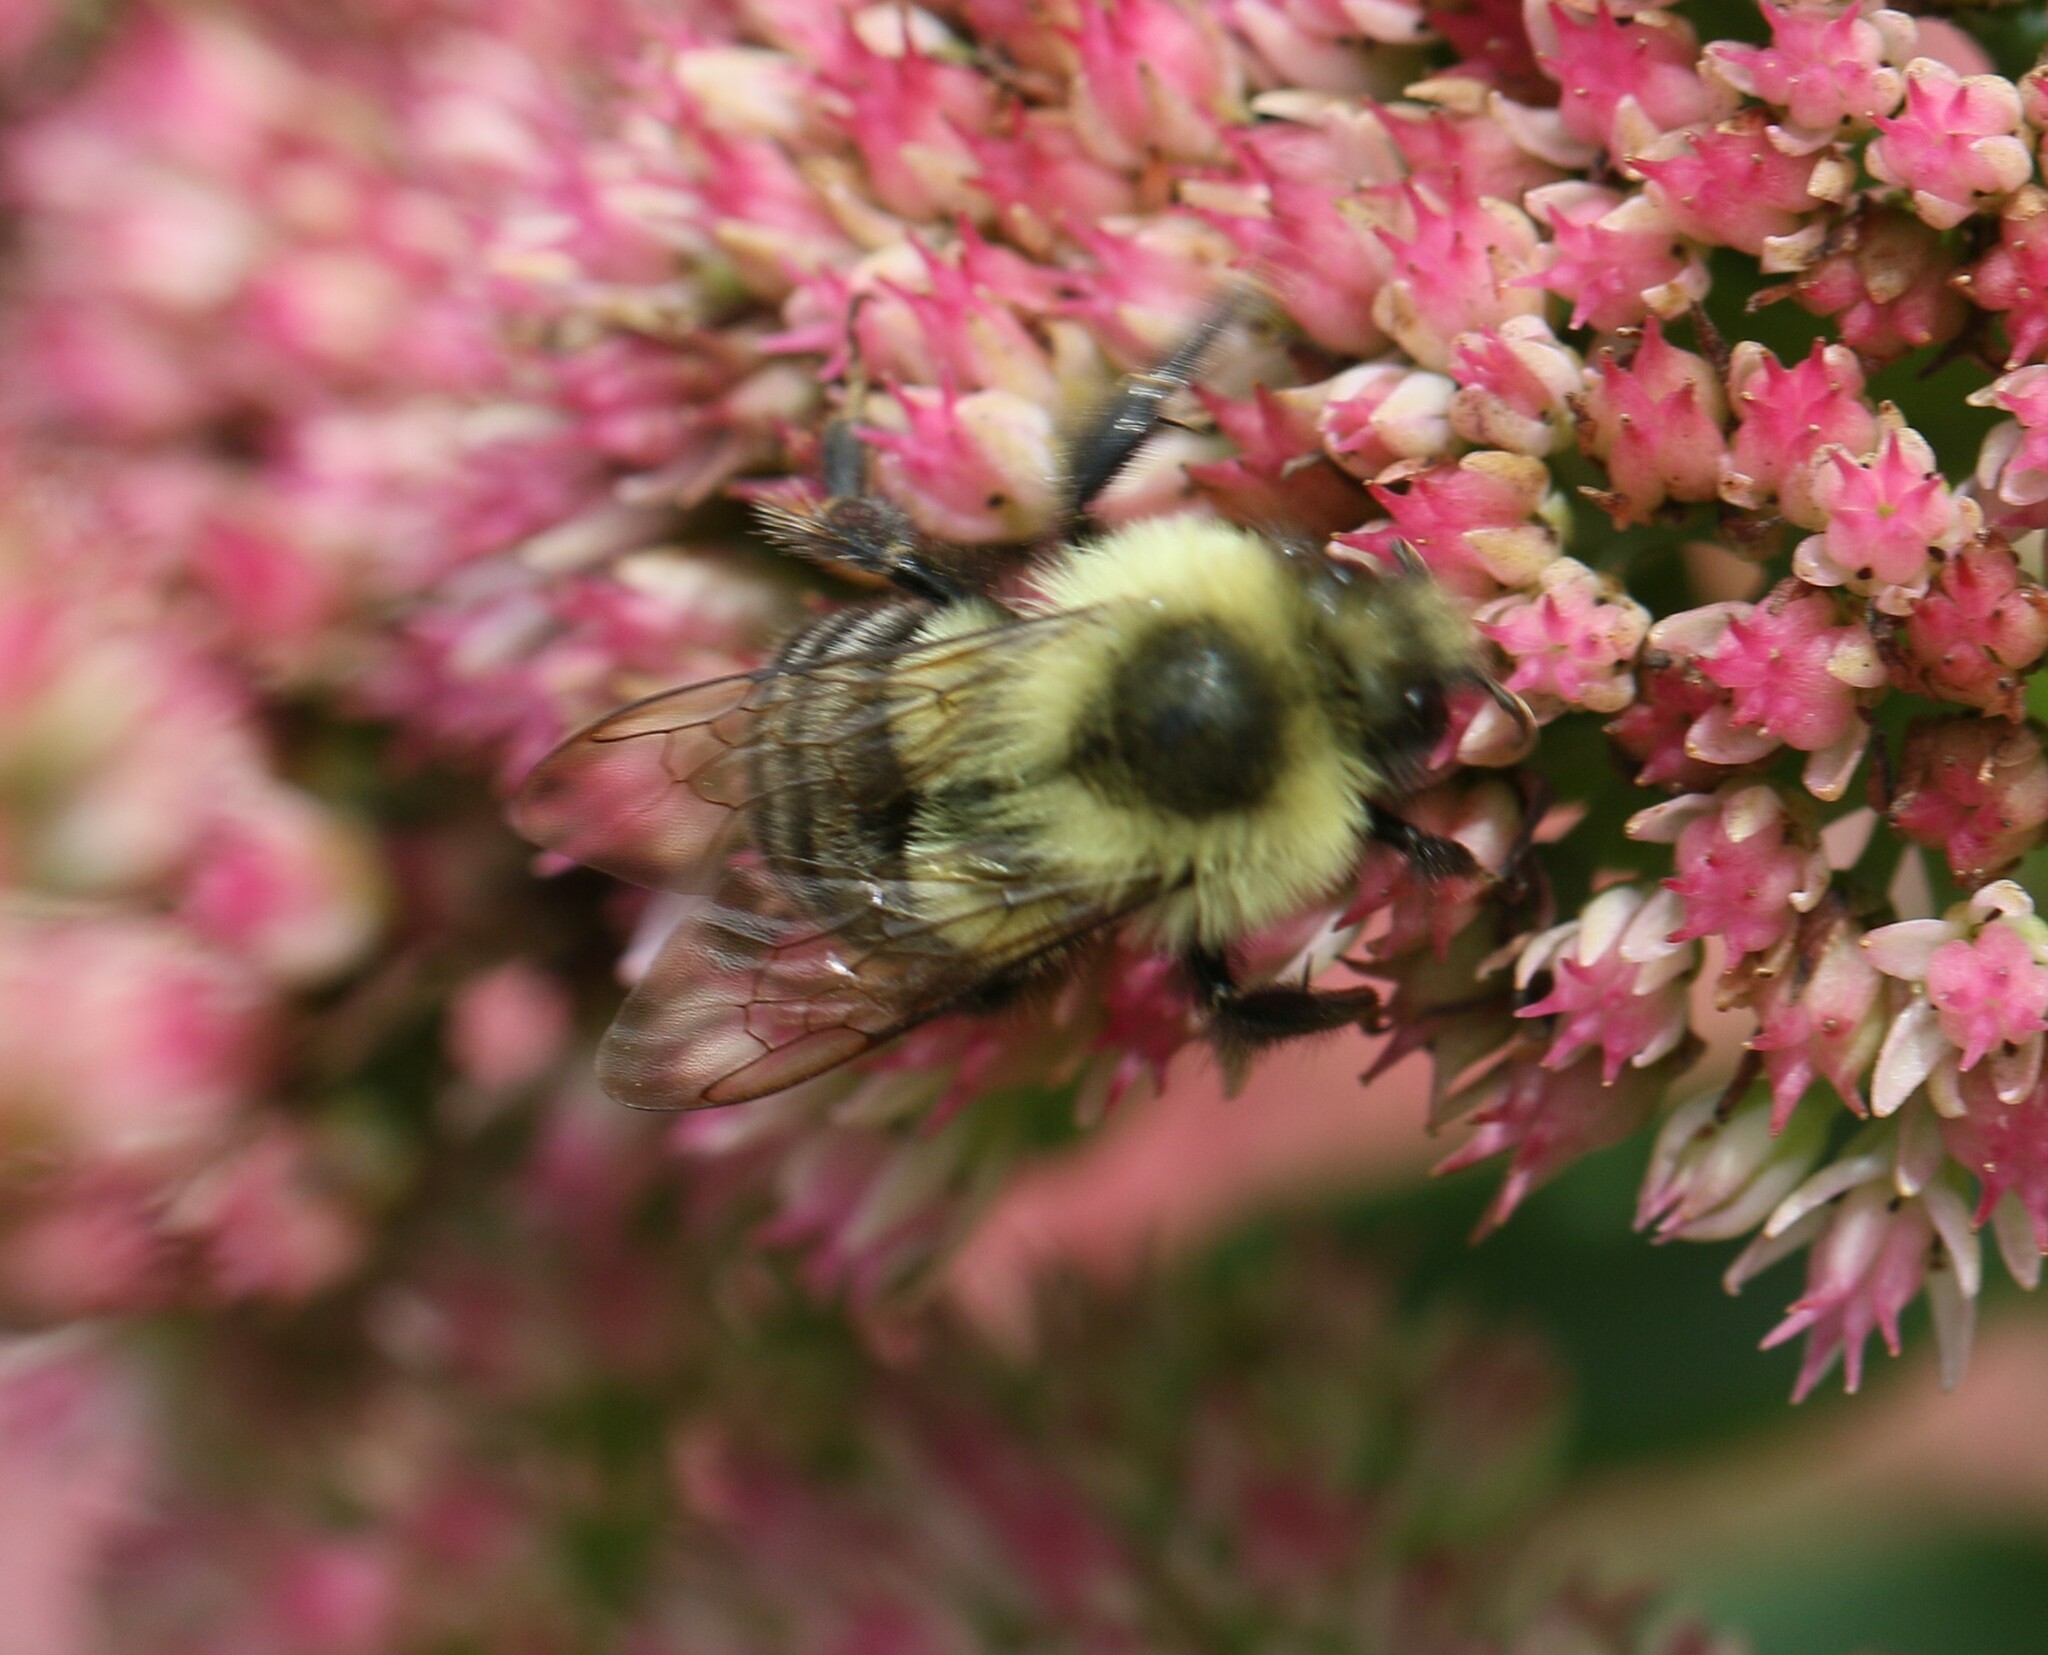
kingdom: Animalia
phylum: Arthropoda
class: Insecta
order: Hymenoptera
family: Apidae
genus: Bombus
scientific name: Bombus impatiens
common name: Common eastern bumble bee
